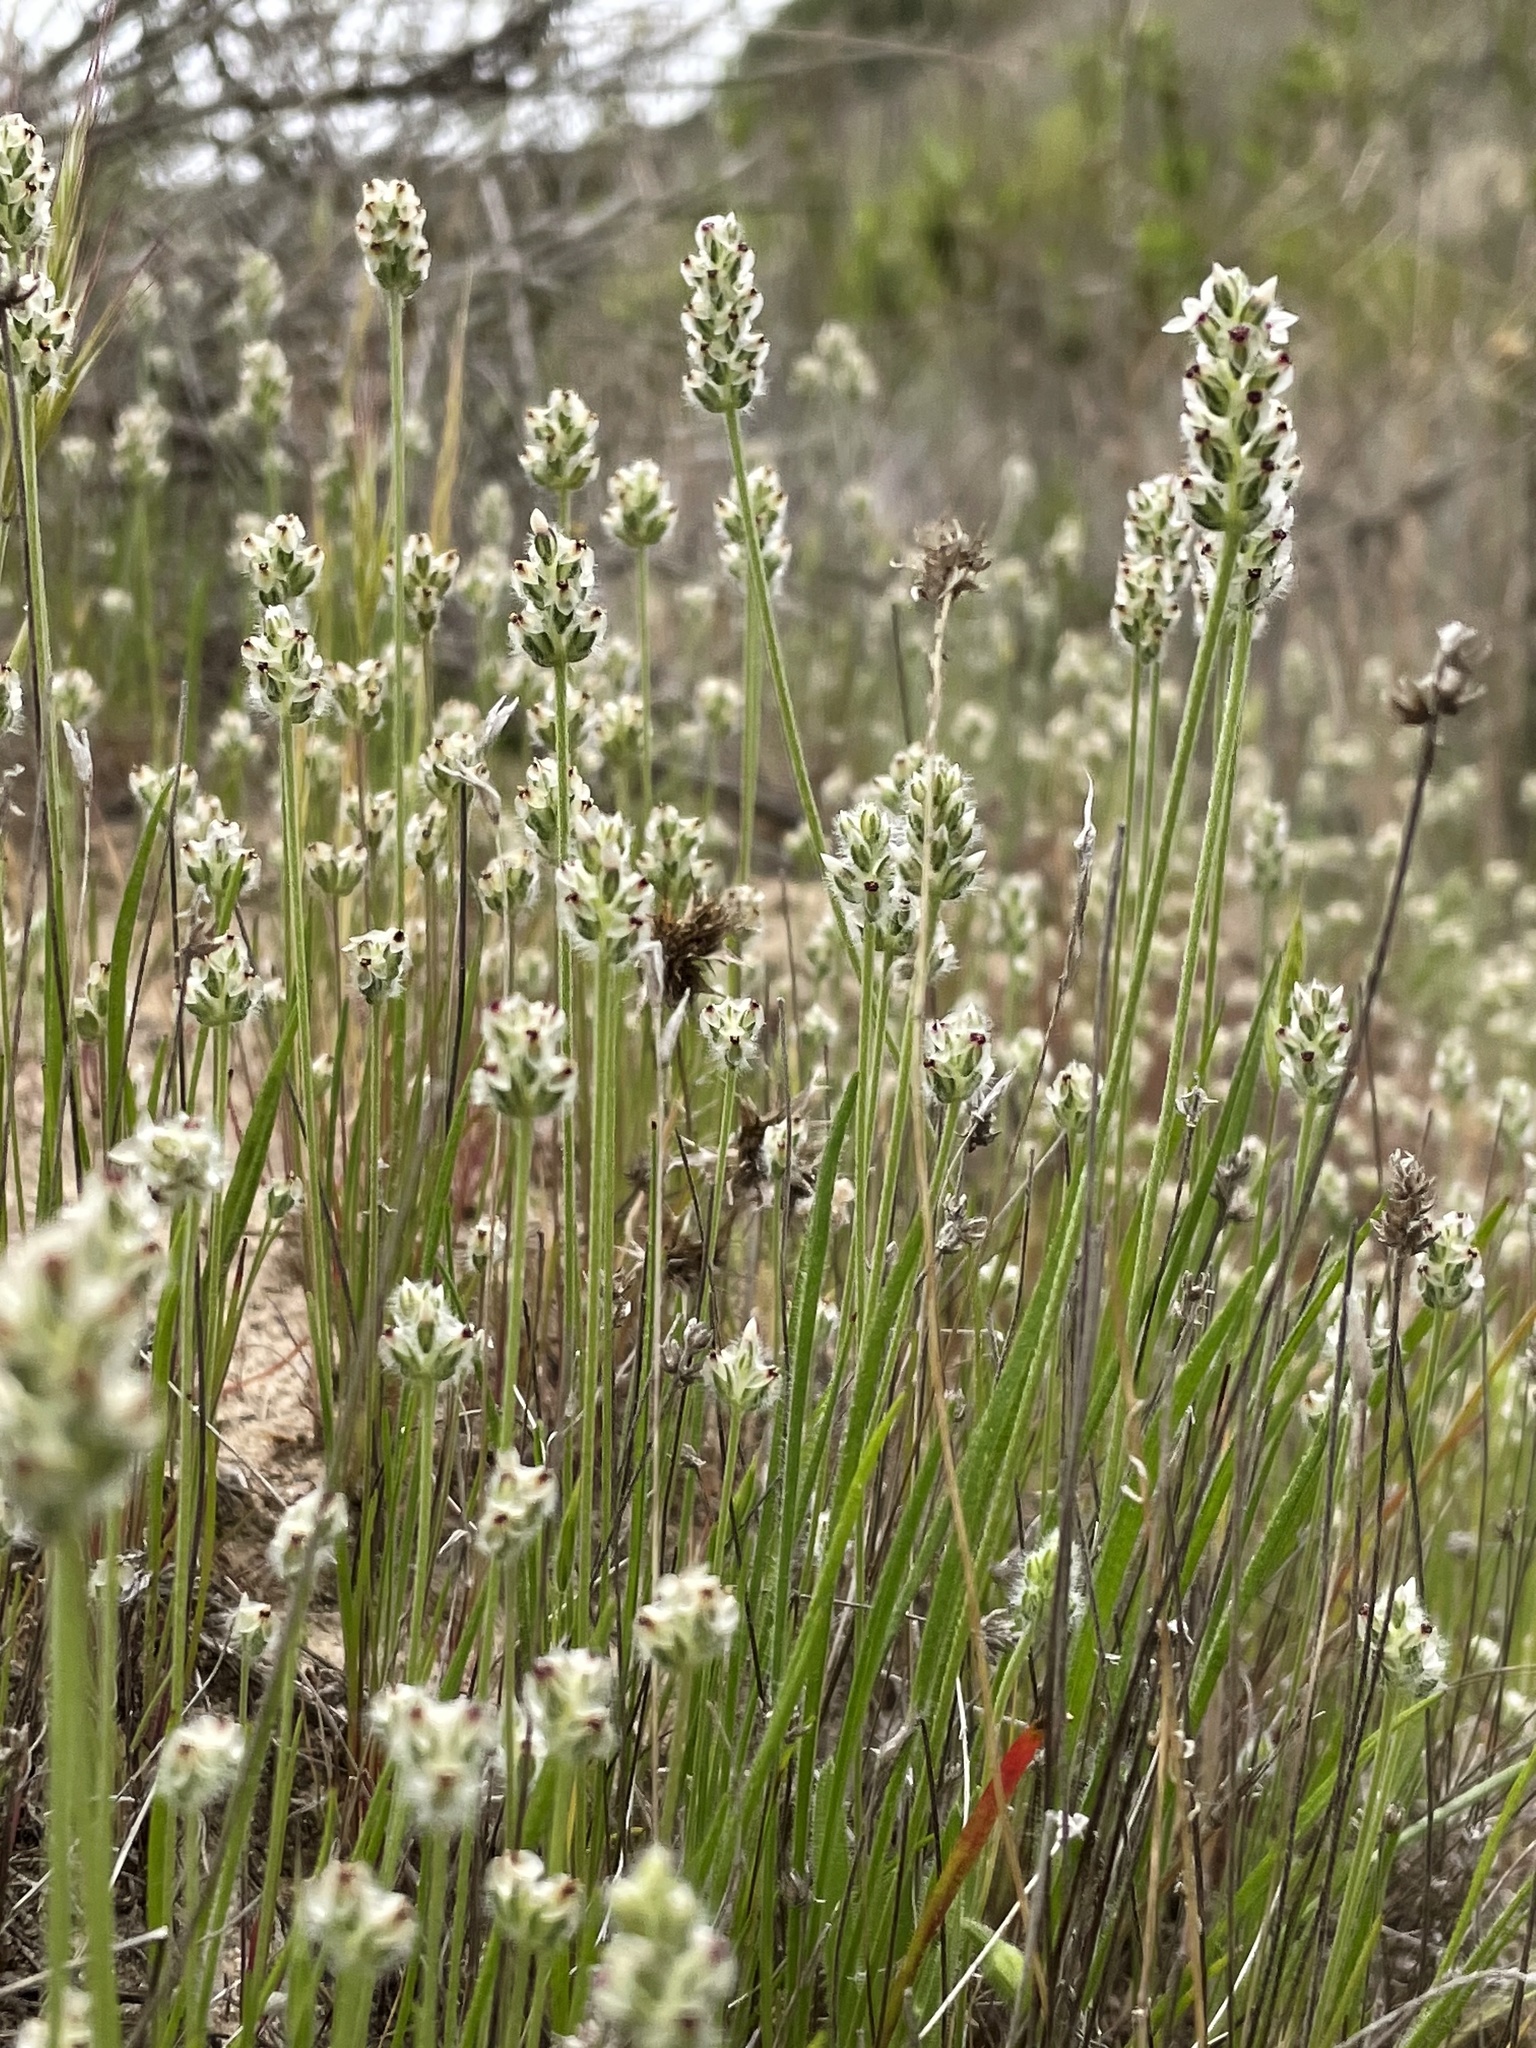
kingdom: Plantae
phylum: Tracheophyta
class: Magnoliopsida
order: Lamiales
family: Plantaginaceae
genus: Plantago
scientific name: Plantago erecta
